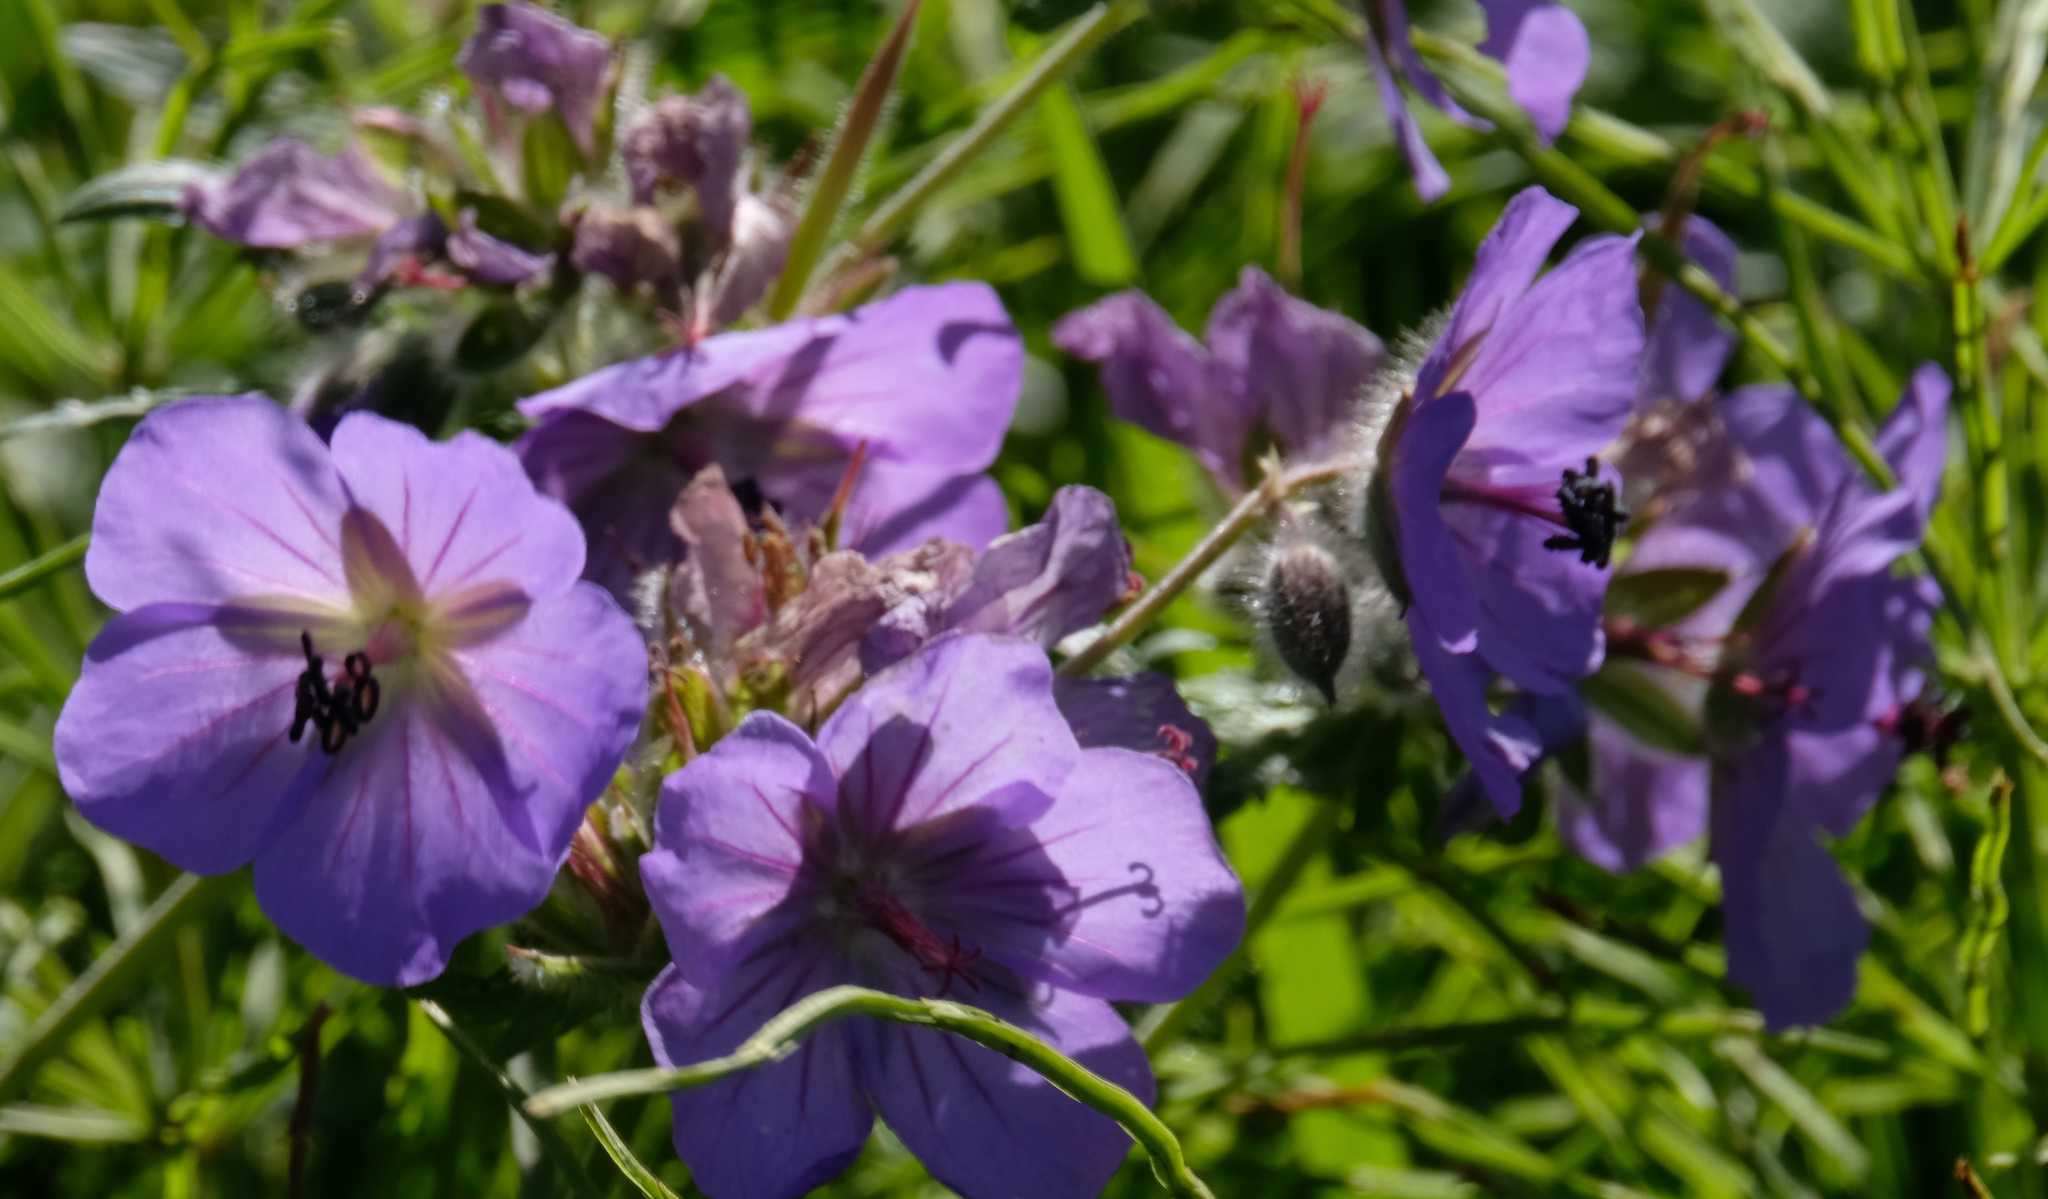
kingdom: Plantae
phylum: Tracheophyta
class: Magnoliopsida
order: Geraniales
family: Geraniaceae
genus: Geranium
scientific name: Geranium erianthum
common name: Northern crane's-bill
